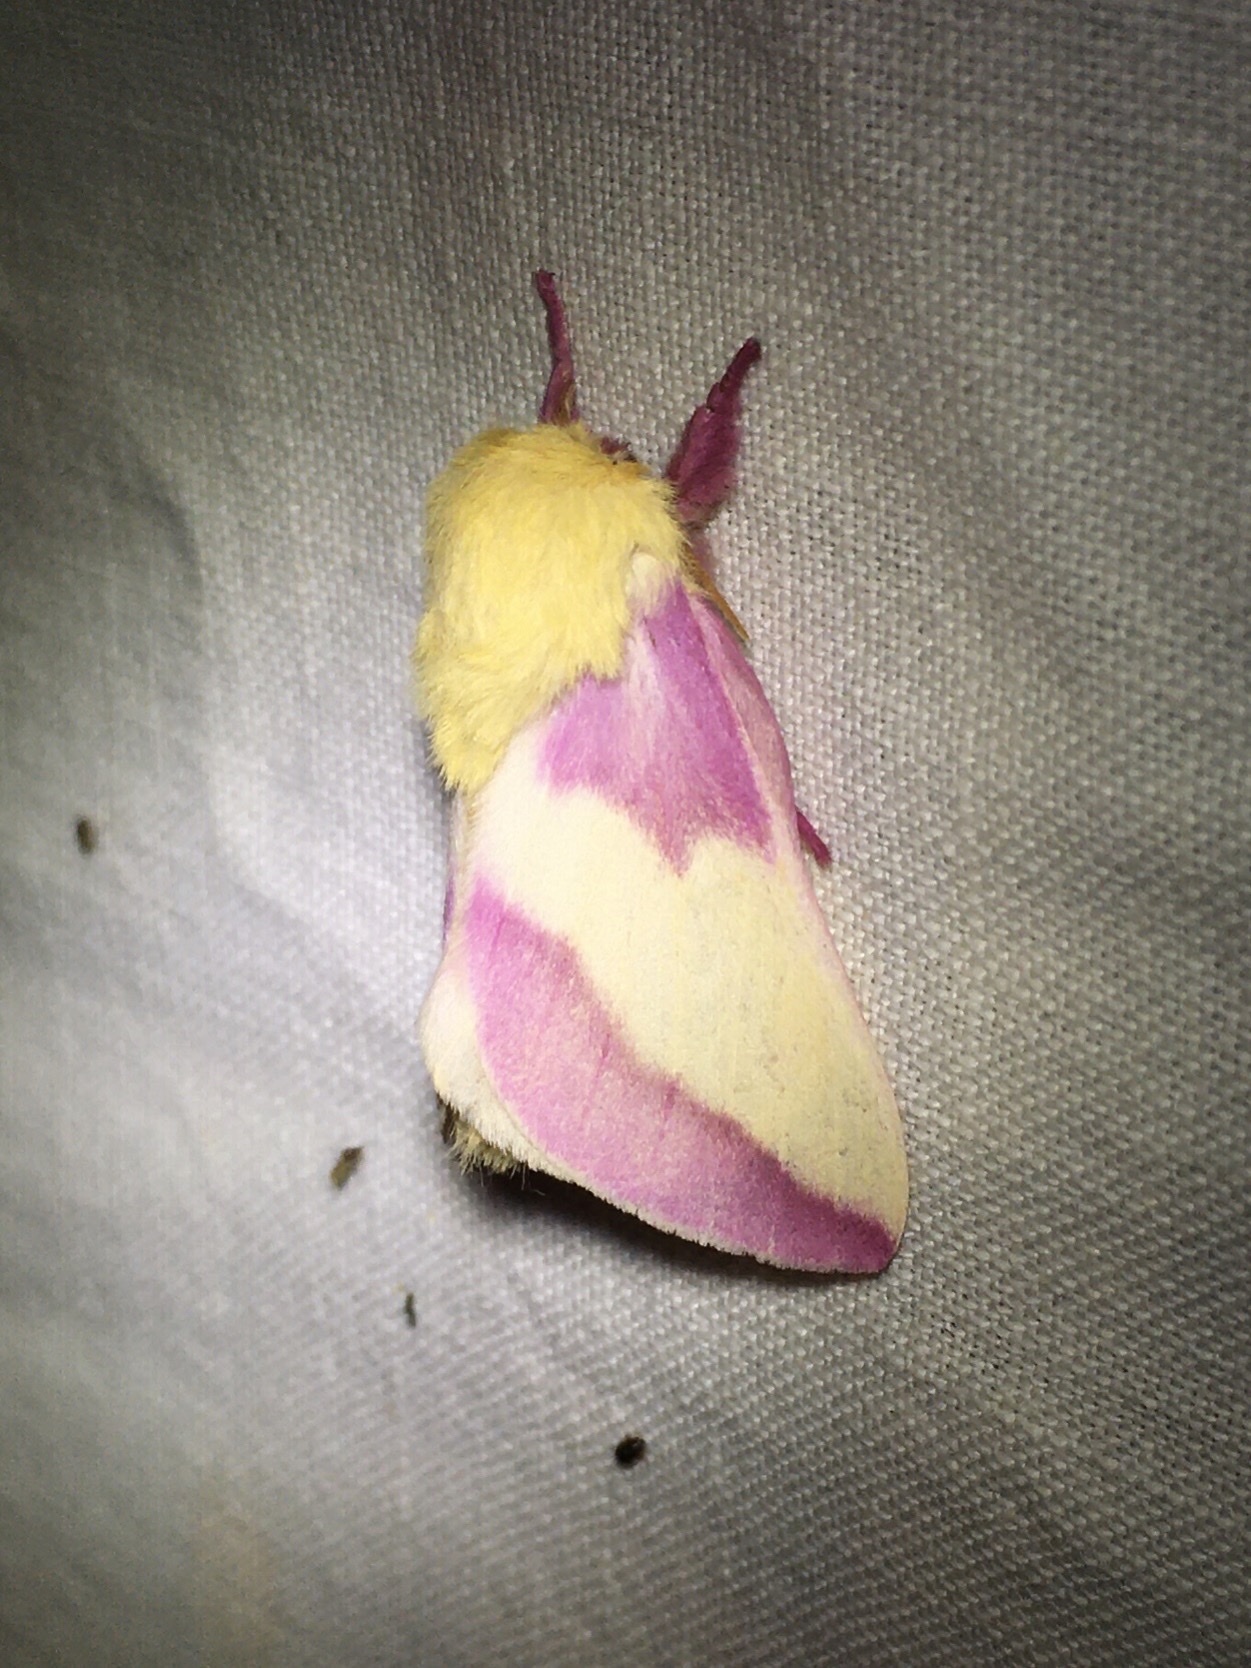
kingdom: Animalia
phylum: Arthropoda
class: Insecta
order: Lepidoptera
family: Saturniidae
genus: Dryocampa
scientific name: Dryocampa rubicunda
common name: Rosy maple moth
